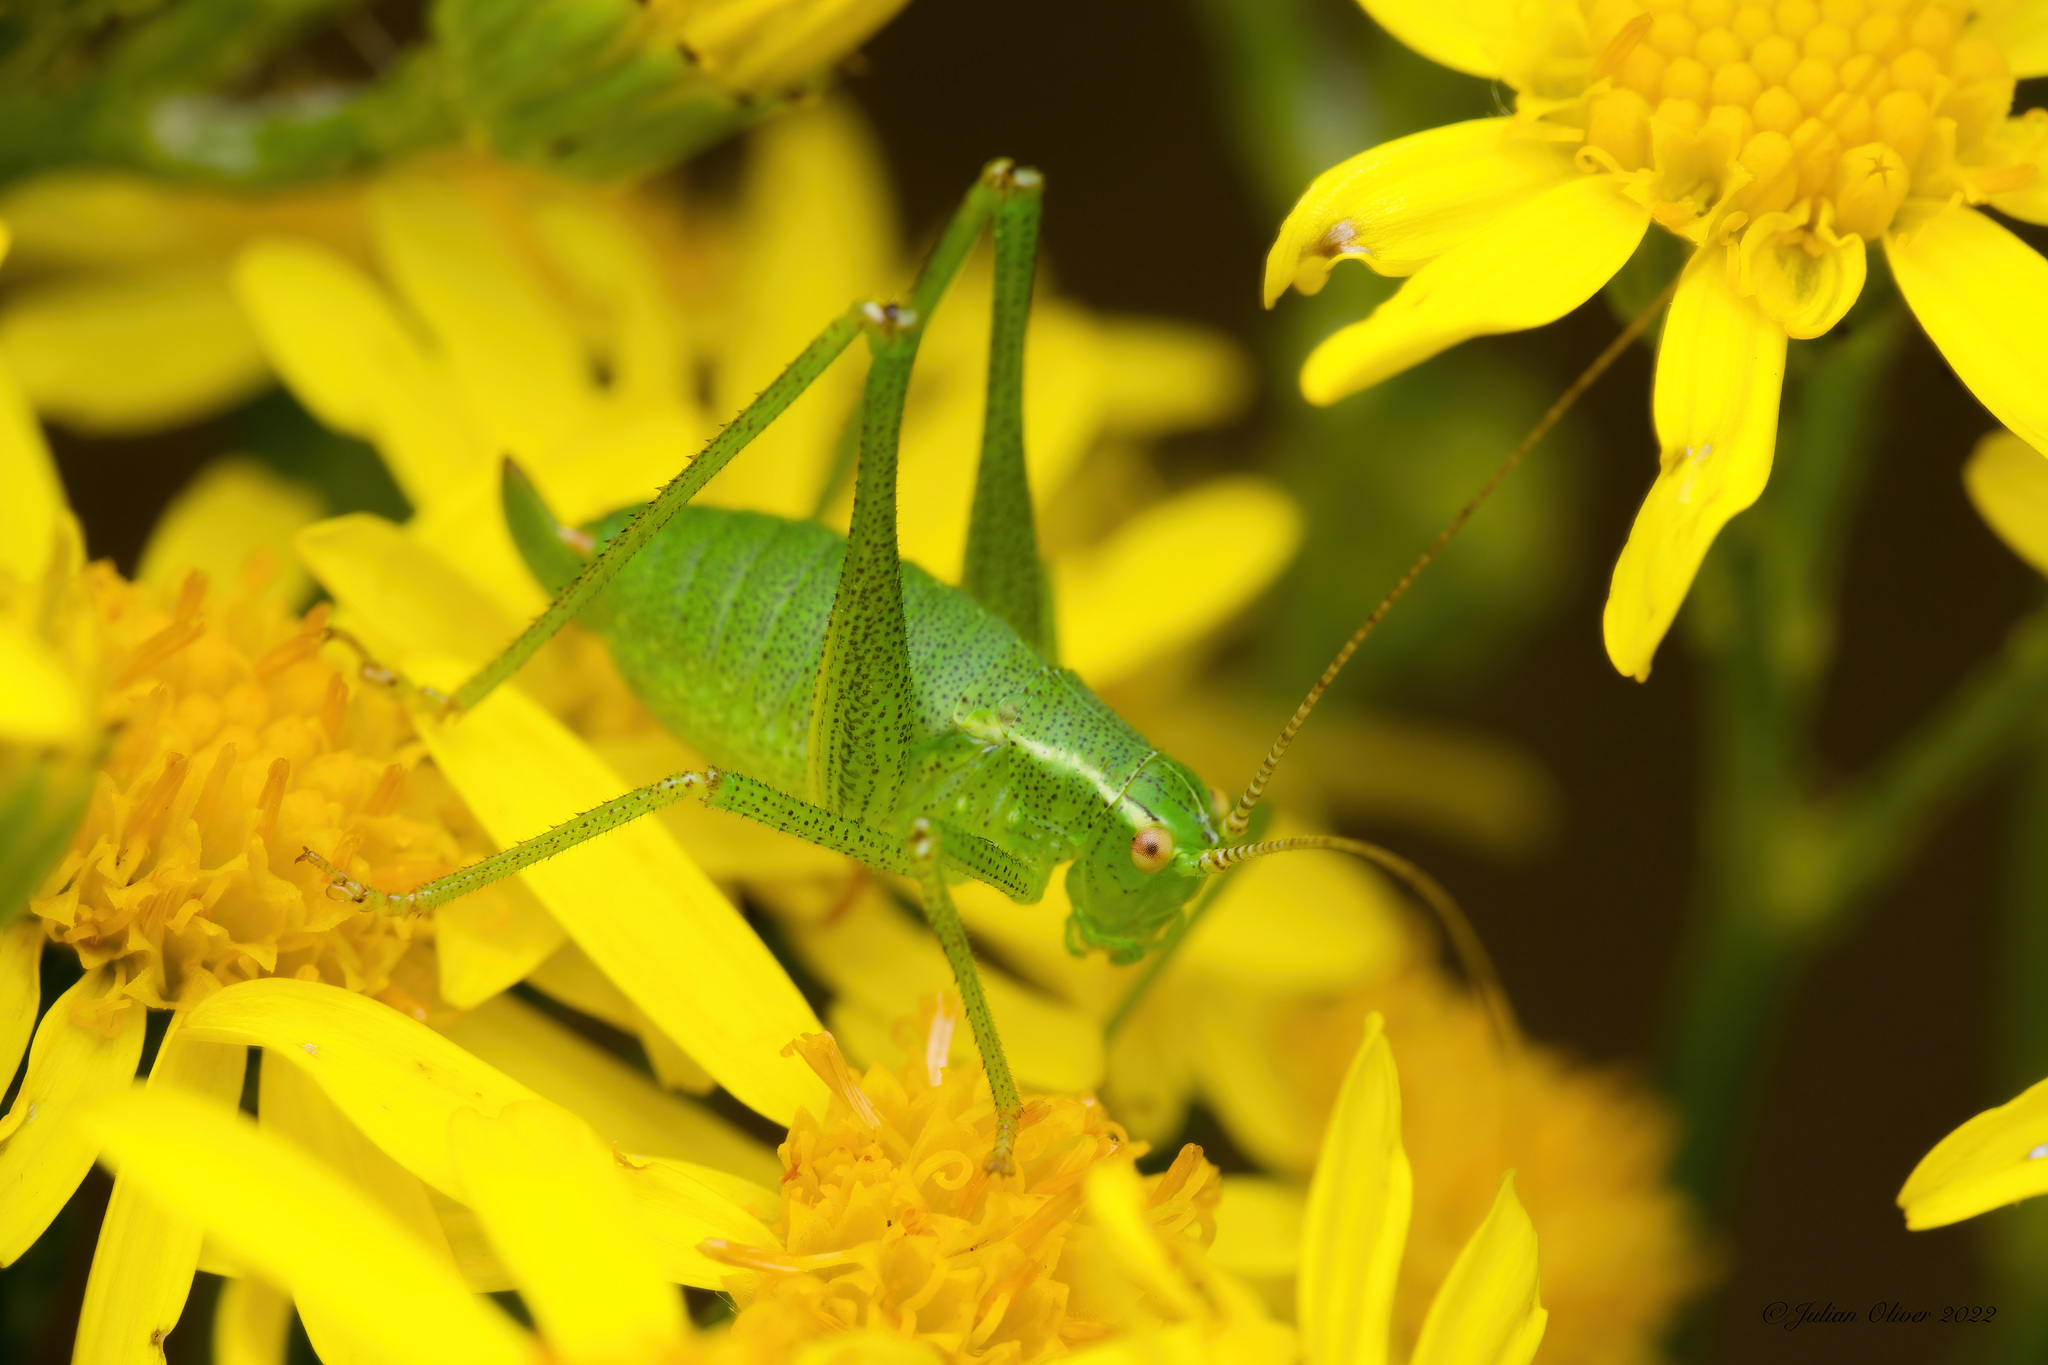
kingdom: Animalia
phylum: Arthropoda
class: Insecta
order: Orthoptera
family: Tettigoniidae
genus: Leptophyes
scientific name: Leptophyes punctatissima
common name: Speckled bush-cricket
